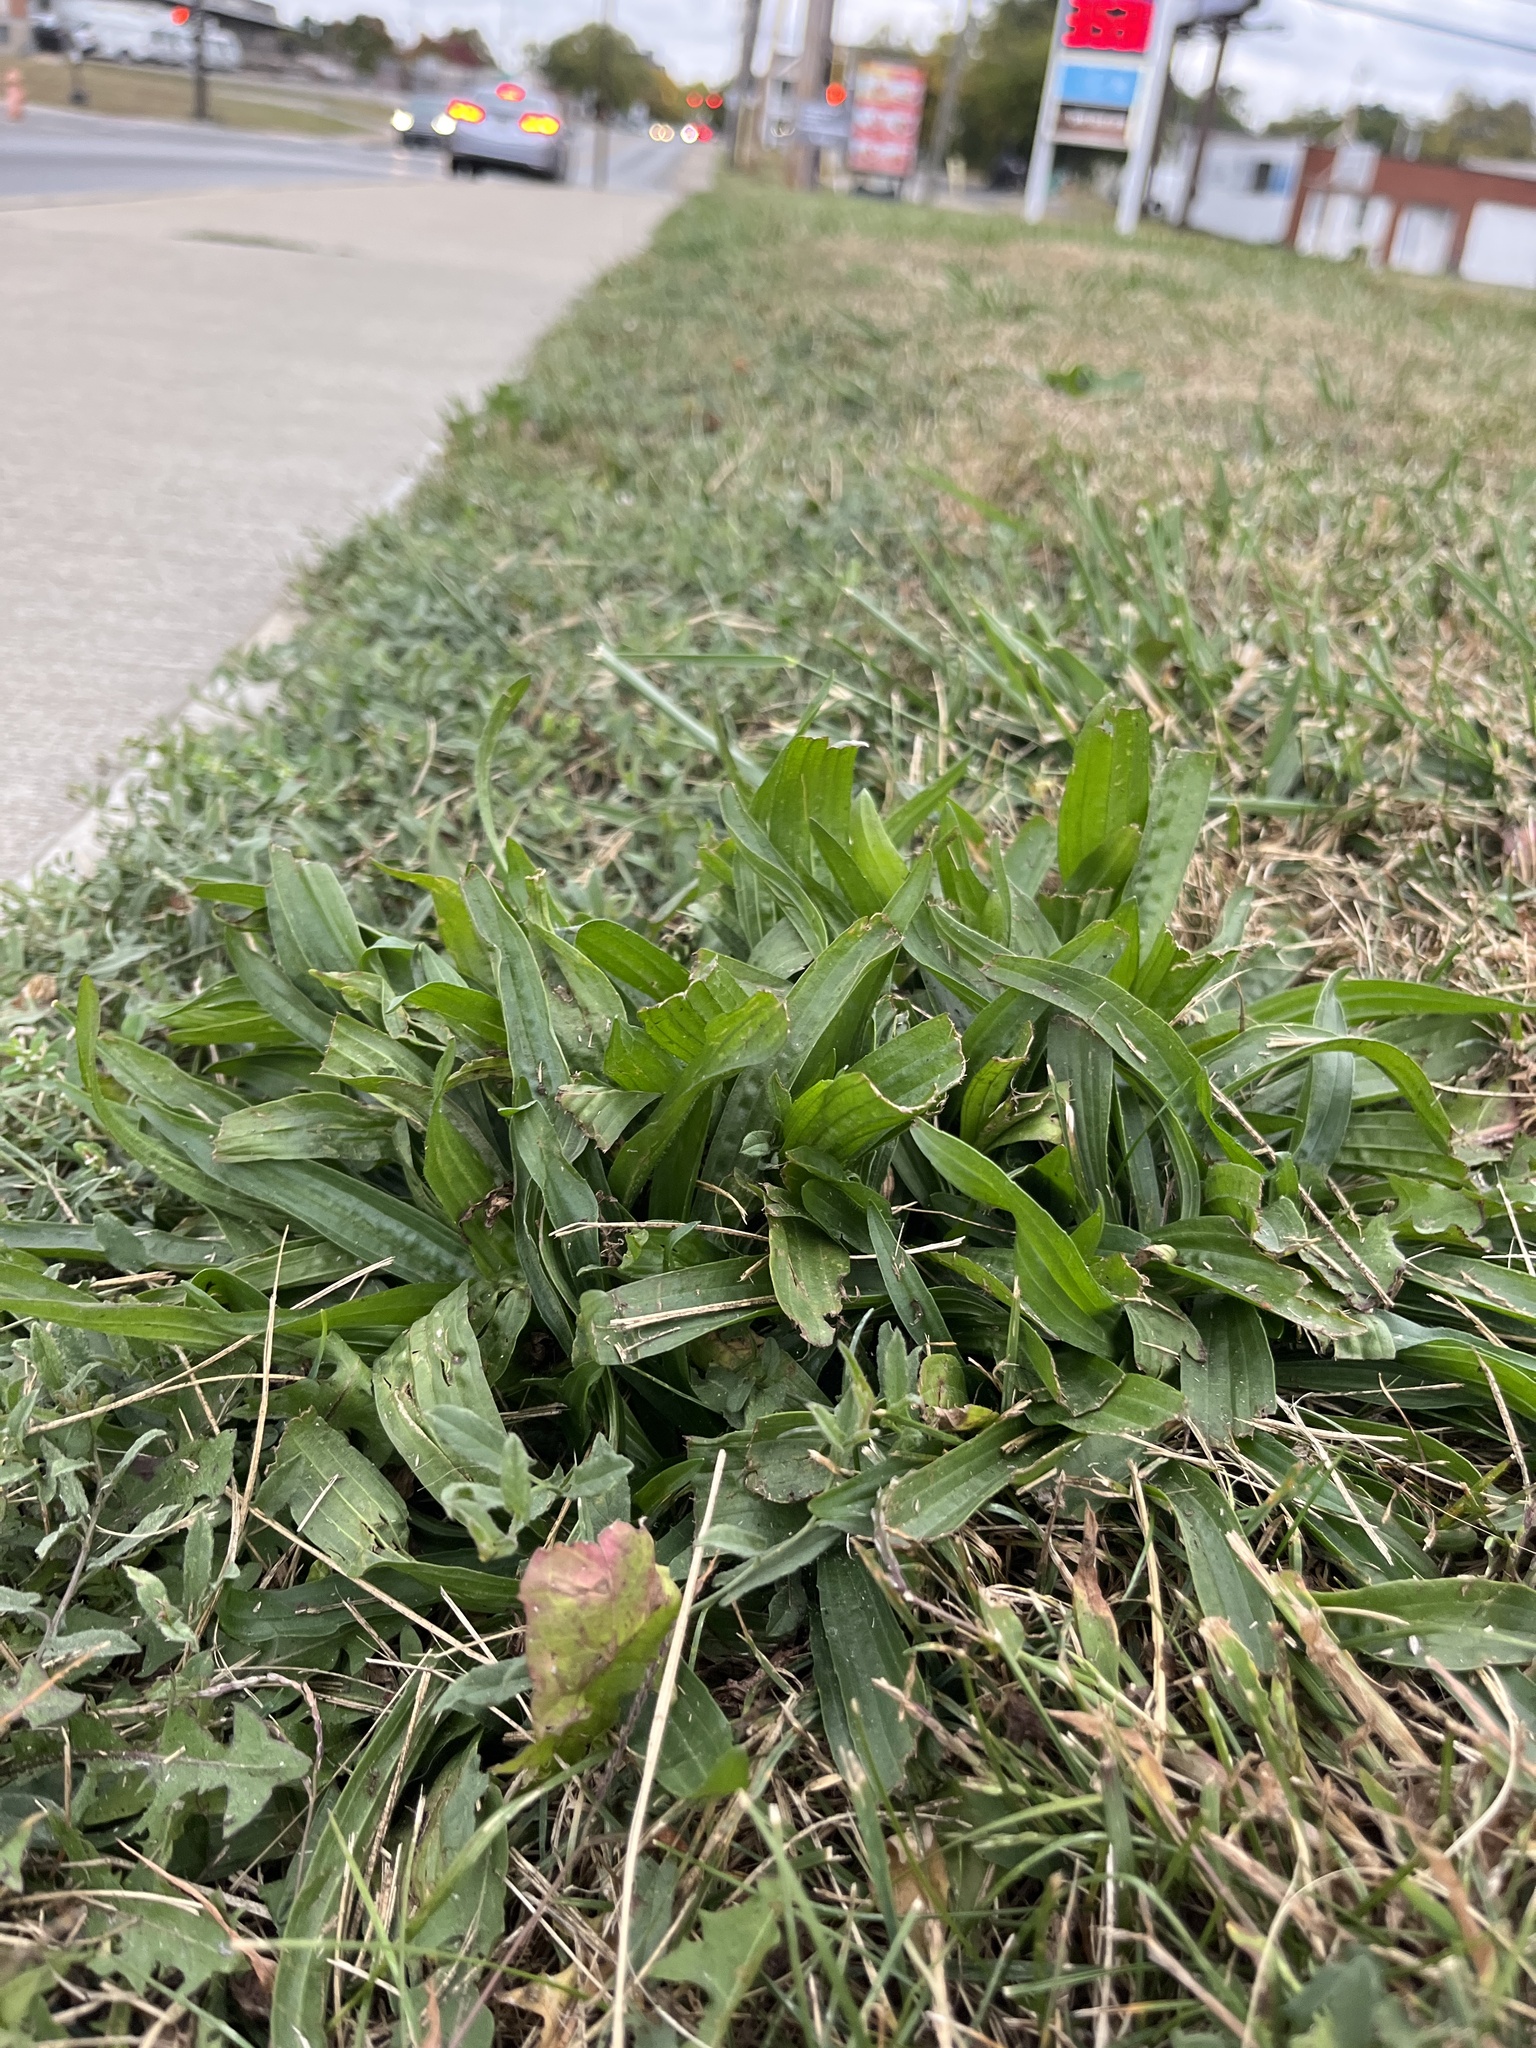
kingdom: Plantae
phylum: Tracheophyta
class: Magnoliopsida
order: Lamiales
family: Plantaginaceae
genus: Plantago
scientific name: Plantago lanceolata
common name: Ribwort plantain
